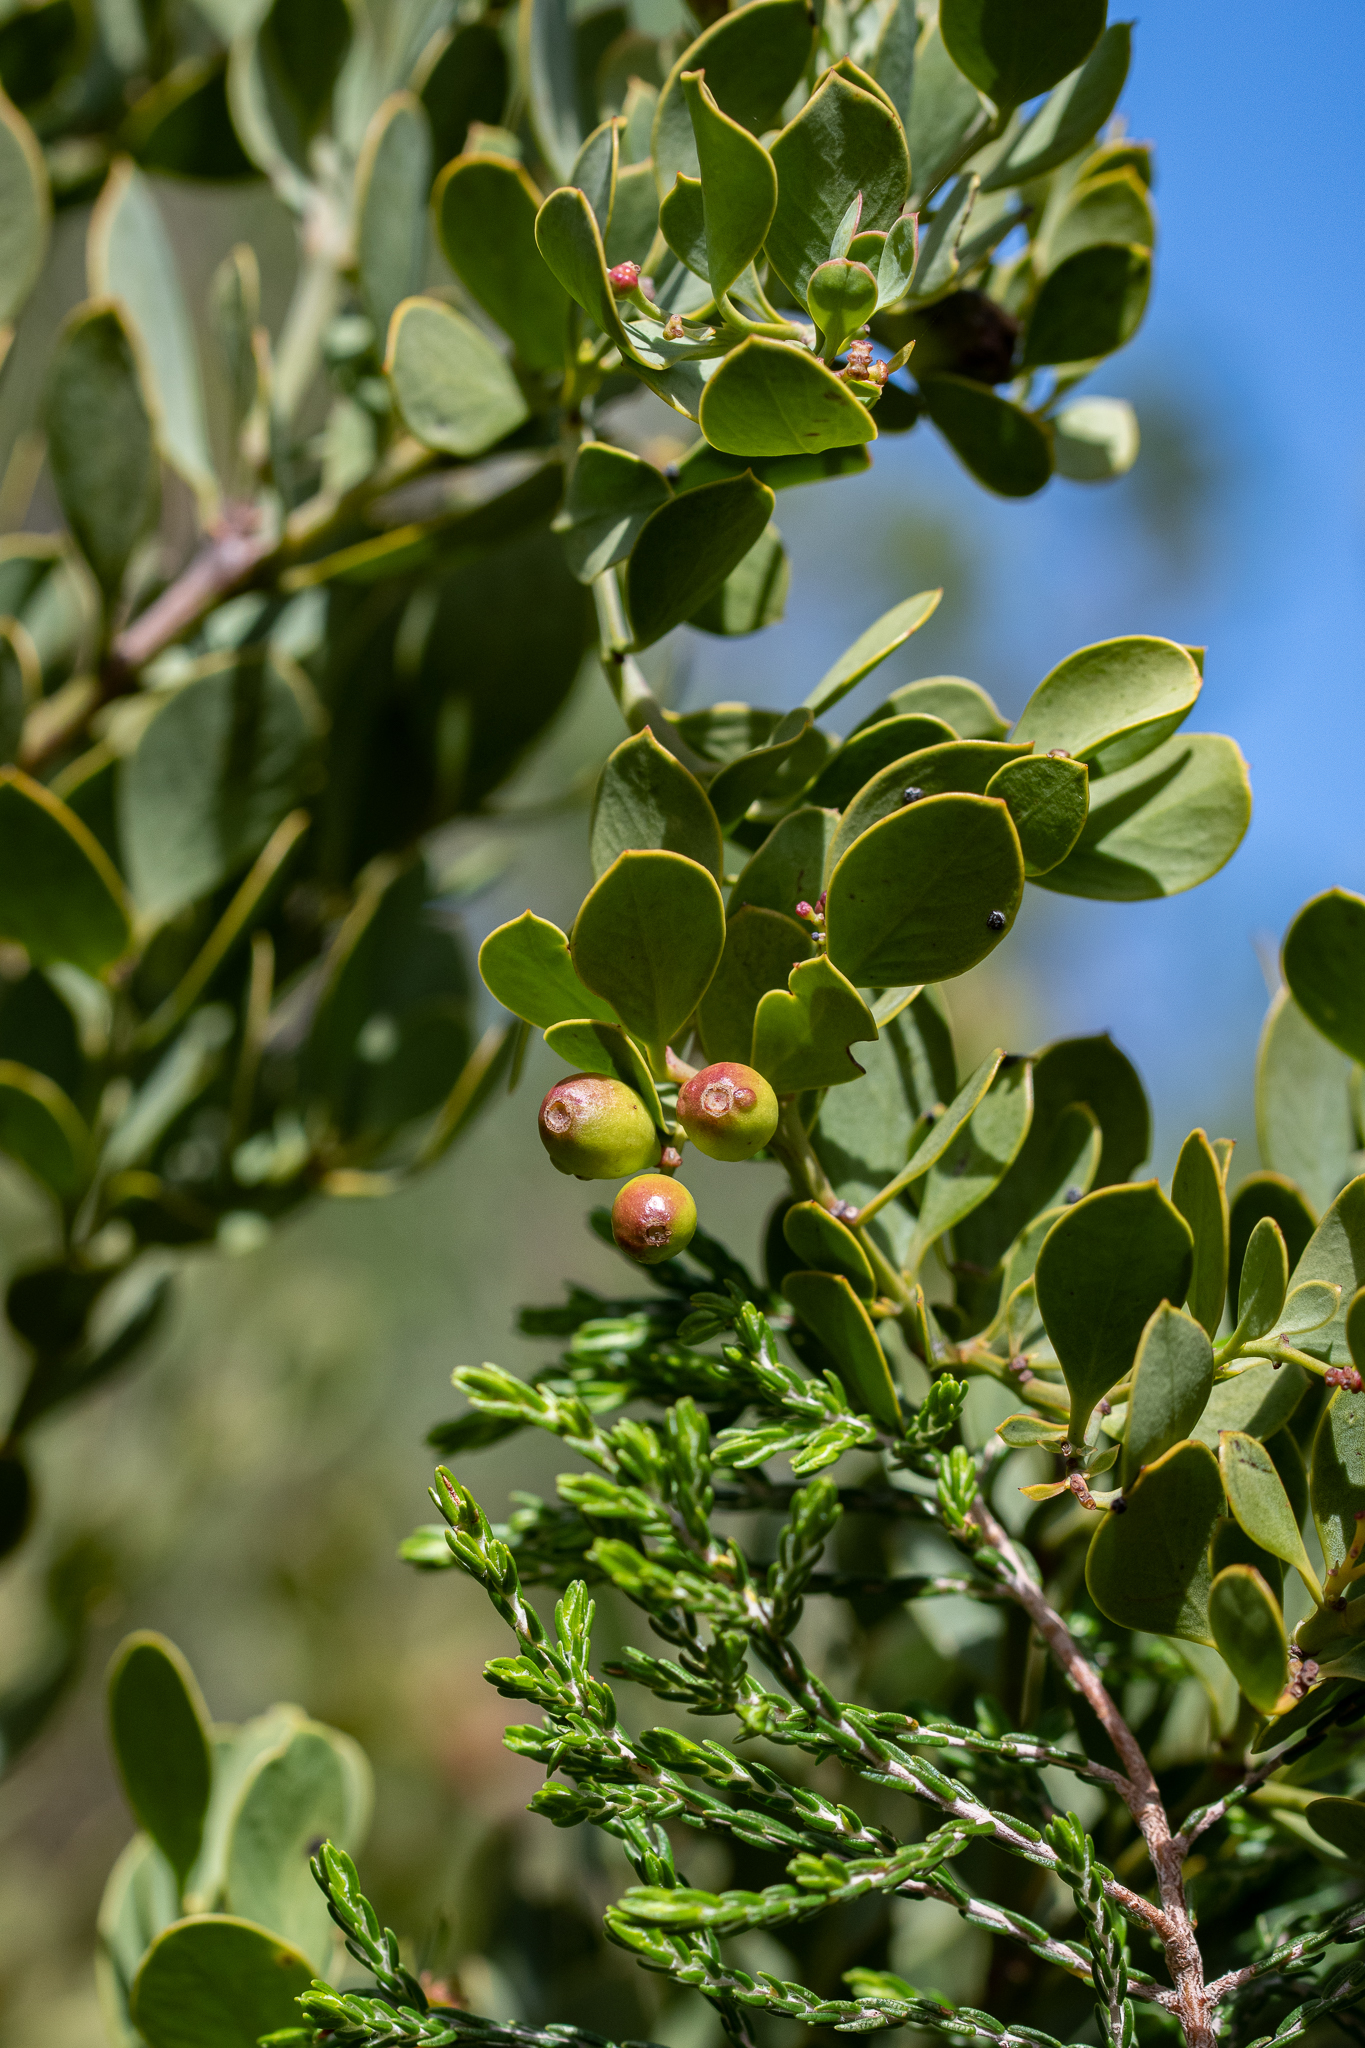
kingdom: Plantae
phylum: Tracheophyta
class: Magnoliopsida
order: Santalales
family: Santalaceae
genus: Osyris
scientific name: Osyris compressa
